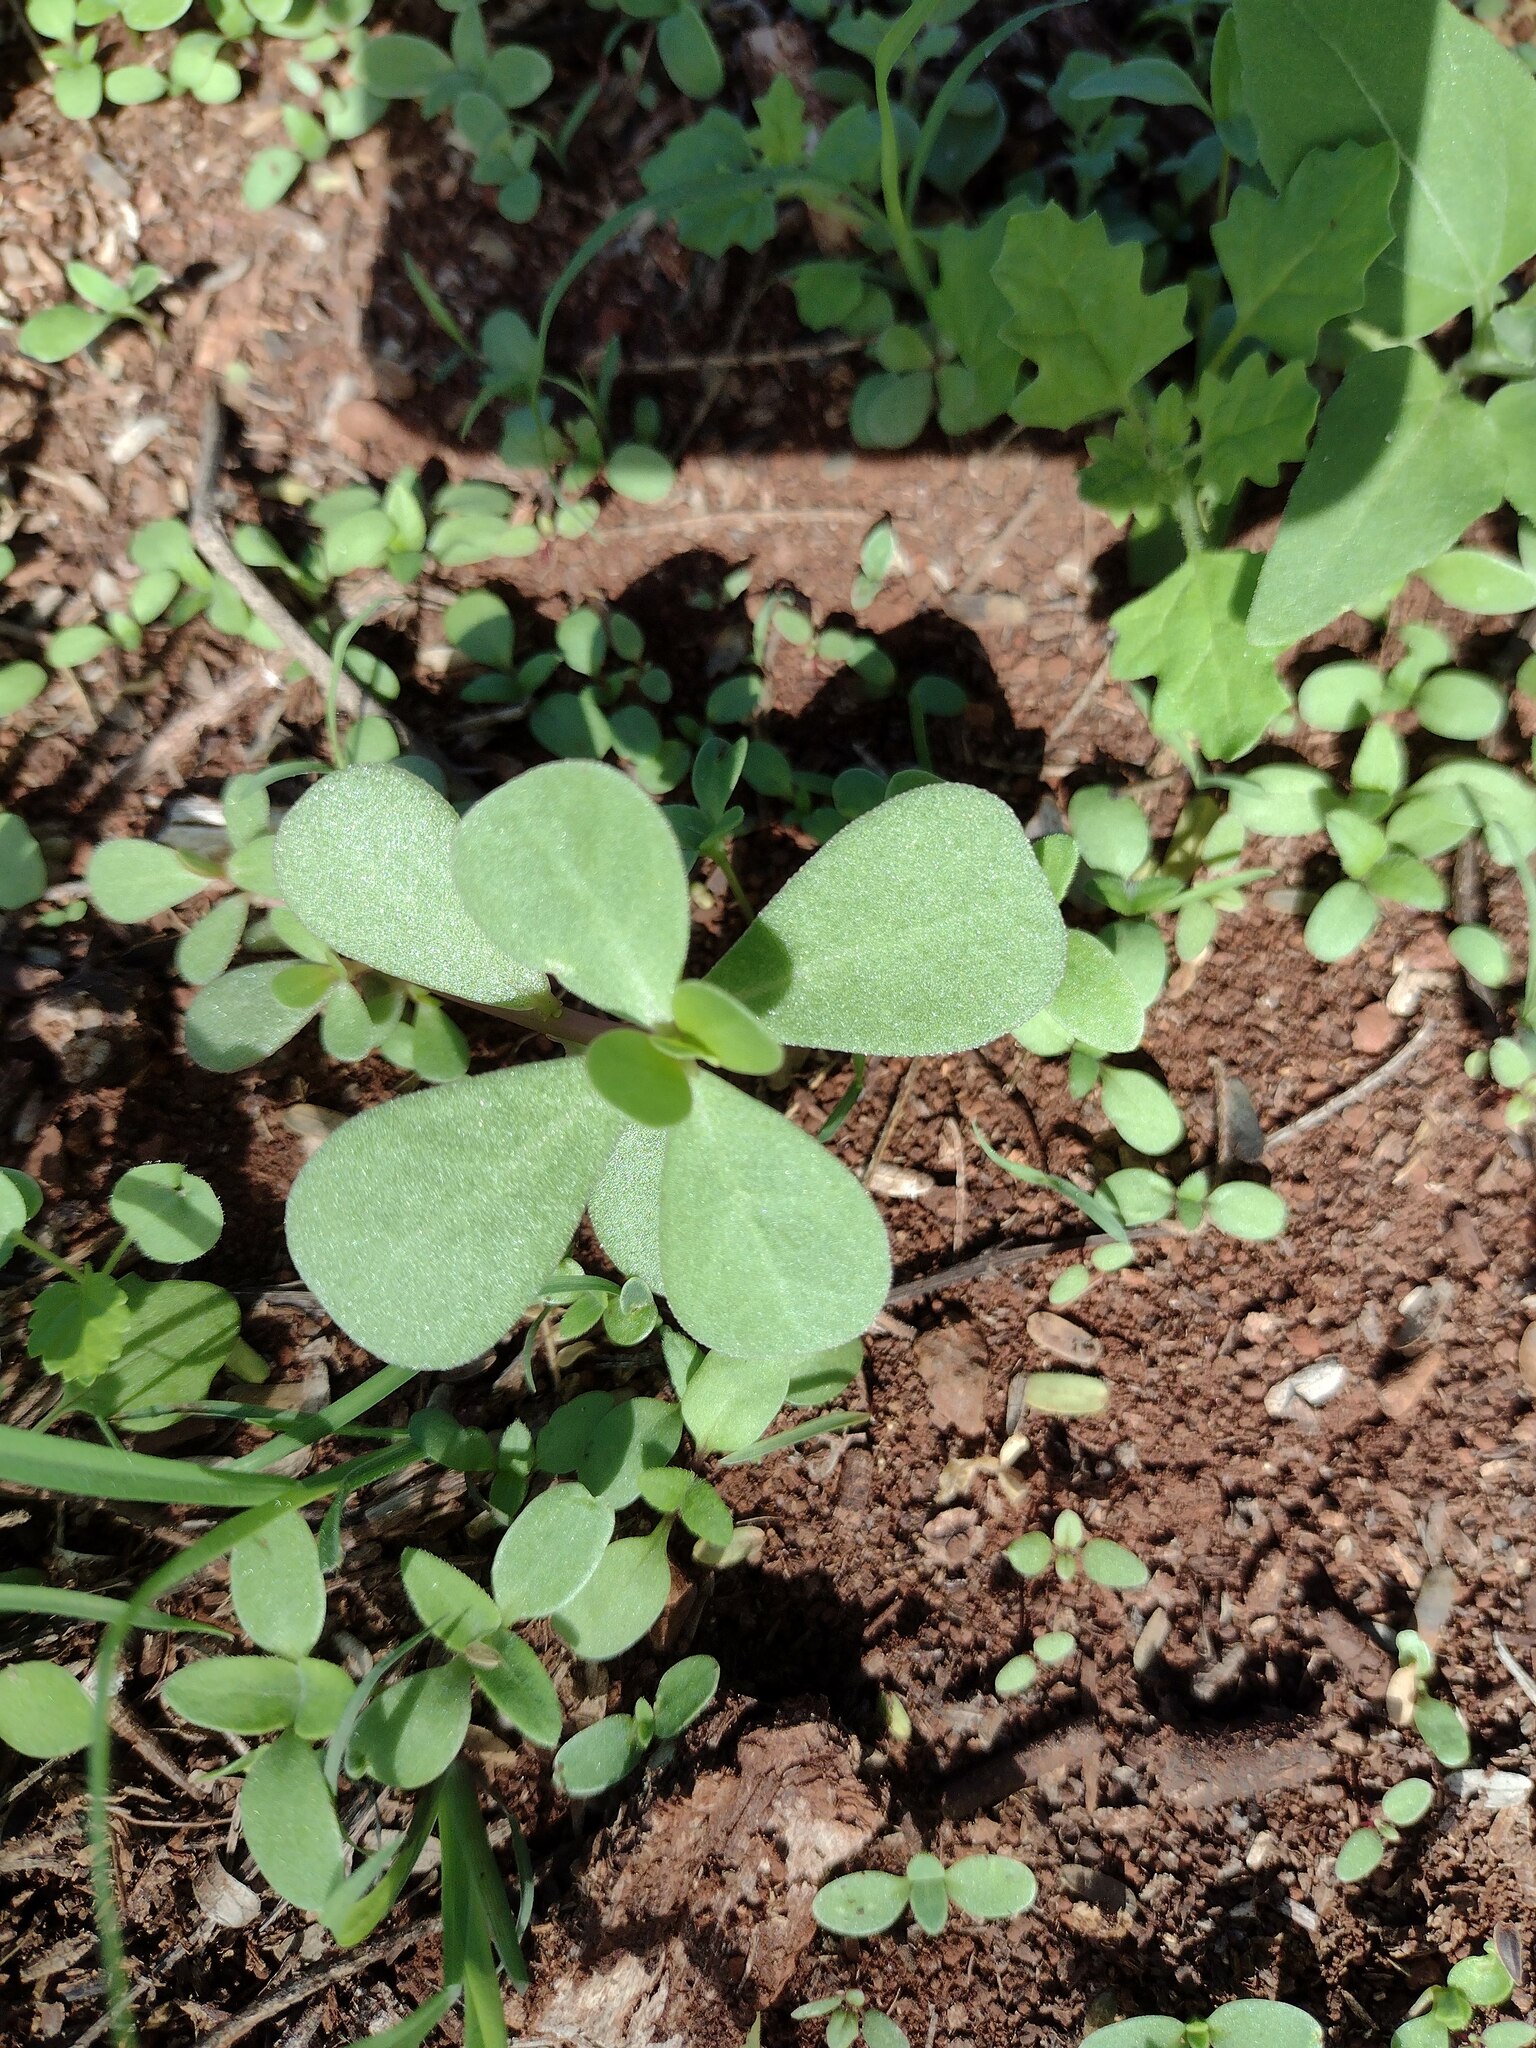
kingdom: Plantae
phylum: Tracheophyta
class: Magnoliopsida
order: Caryophyllales
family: Portulacaceae
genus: Portulaca
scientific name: Portulaca oleracea
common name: Common purslane
